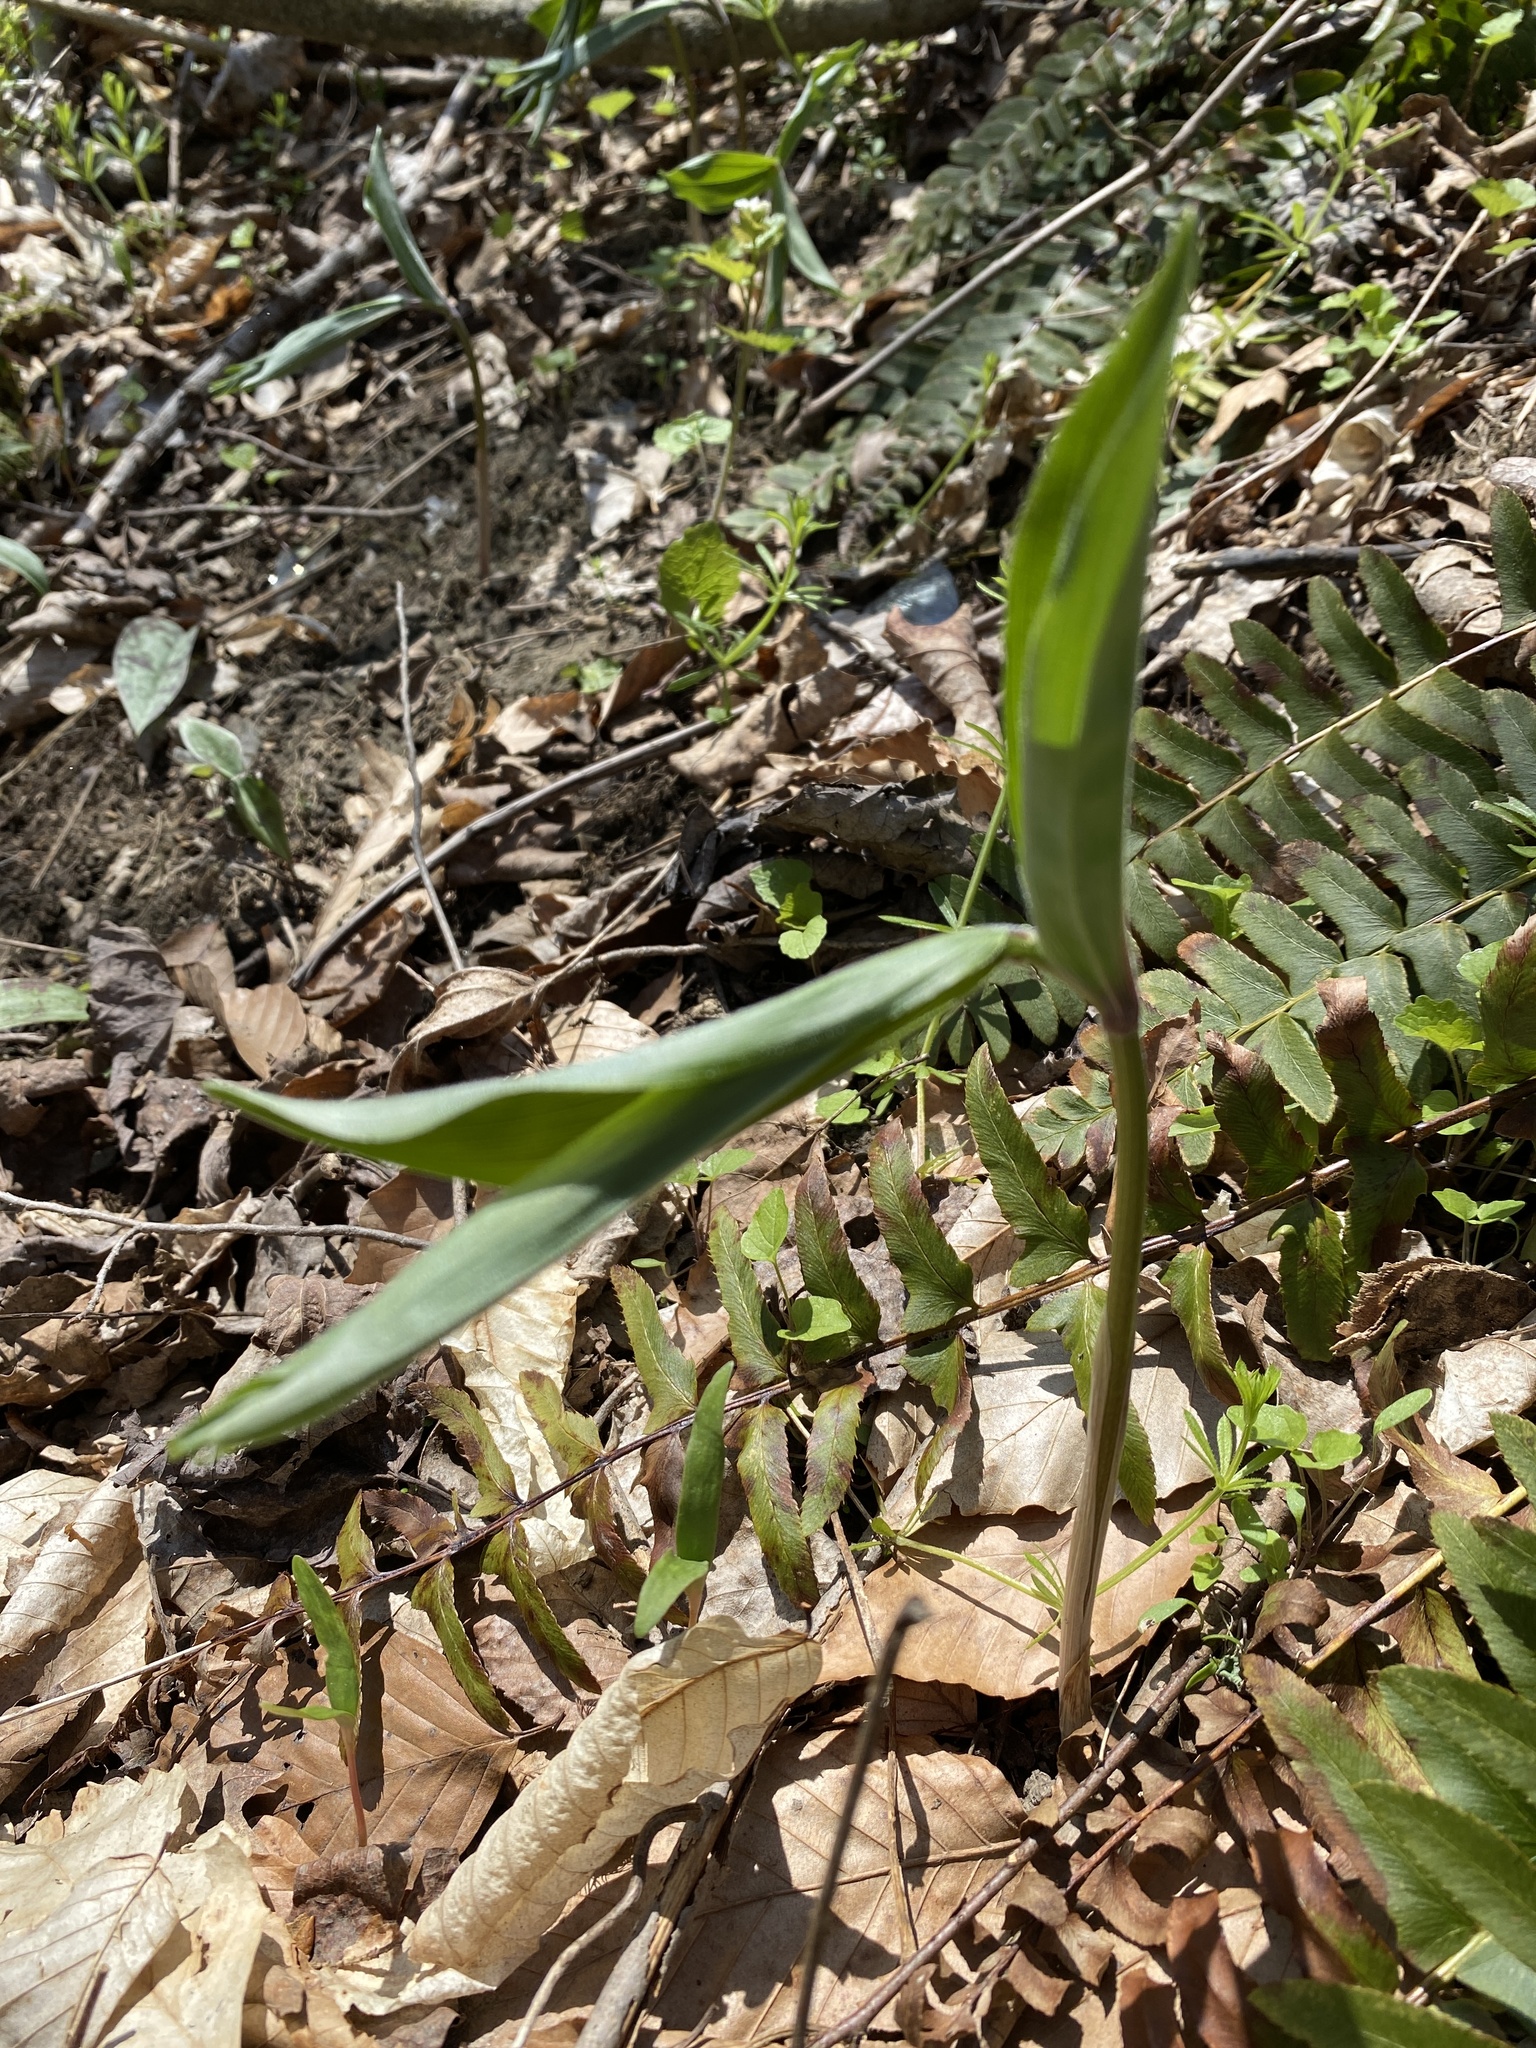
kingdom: Plantae
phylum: Tracheophyta
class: Liliopsida
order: Asparagales
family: Asparagaceae
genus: Maianthemum
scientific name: Maianthemum racemosum
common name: False spikenard
